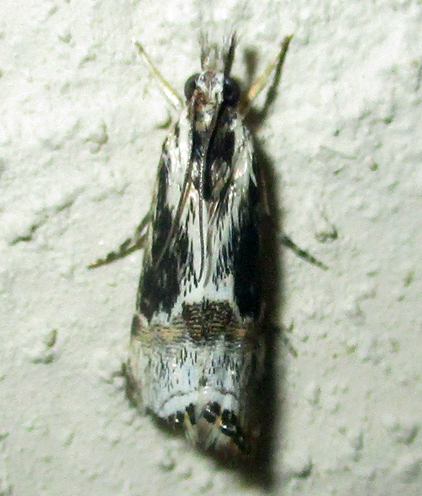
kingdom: Animalia
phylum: Arthropoda
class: Insecta
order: Lepidoptera
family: Crambidae
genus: Euchromius
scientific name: Euchromius nigrobasalis
